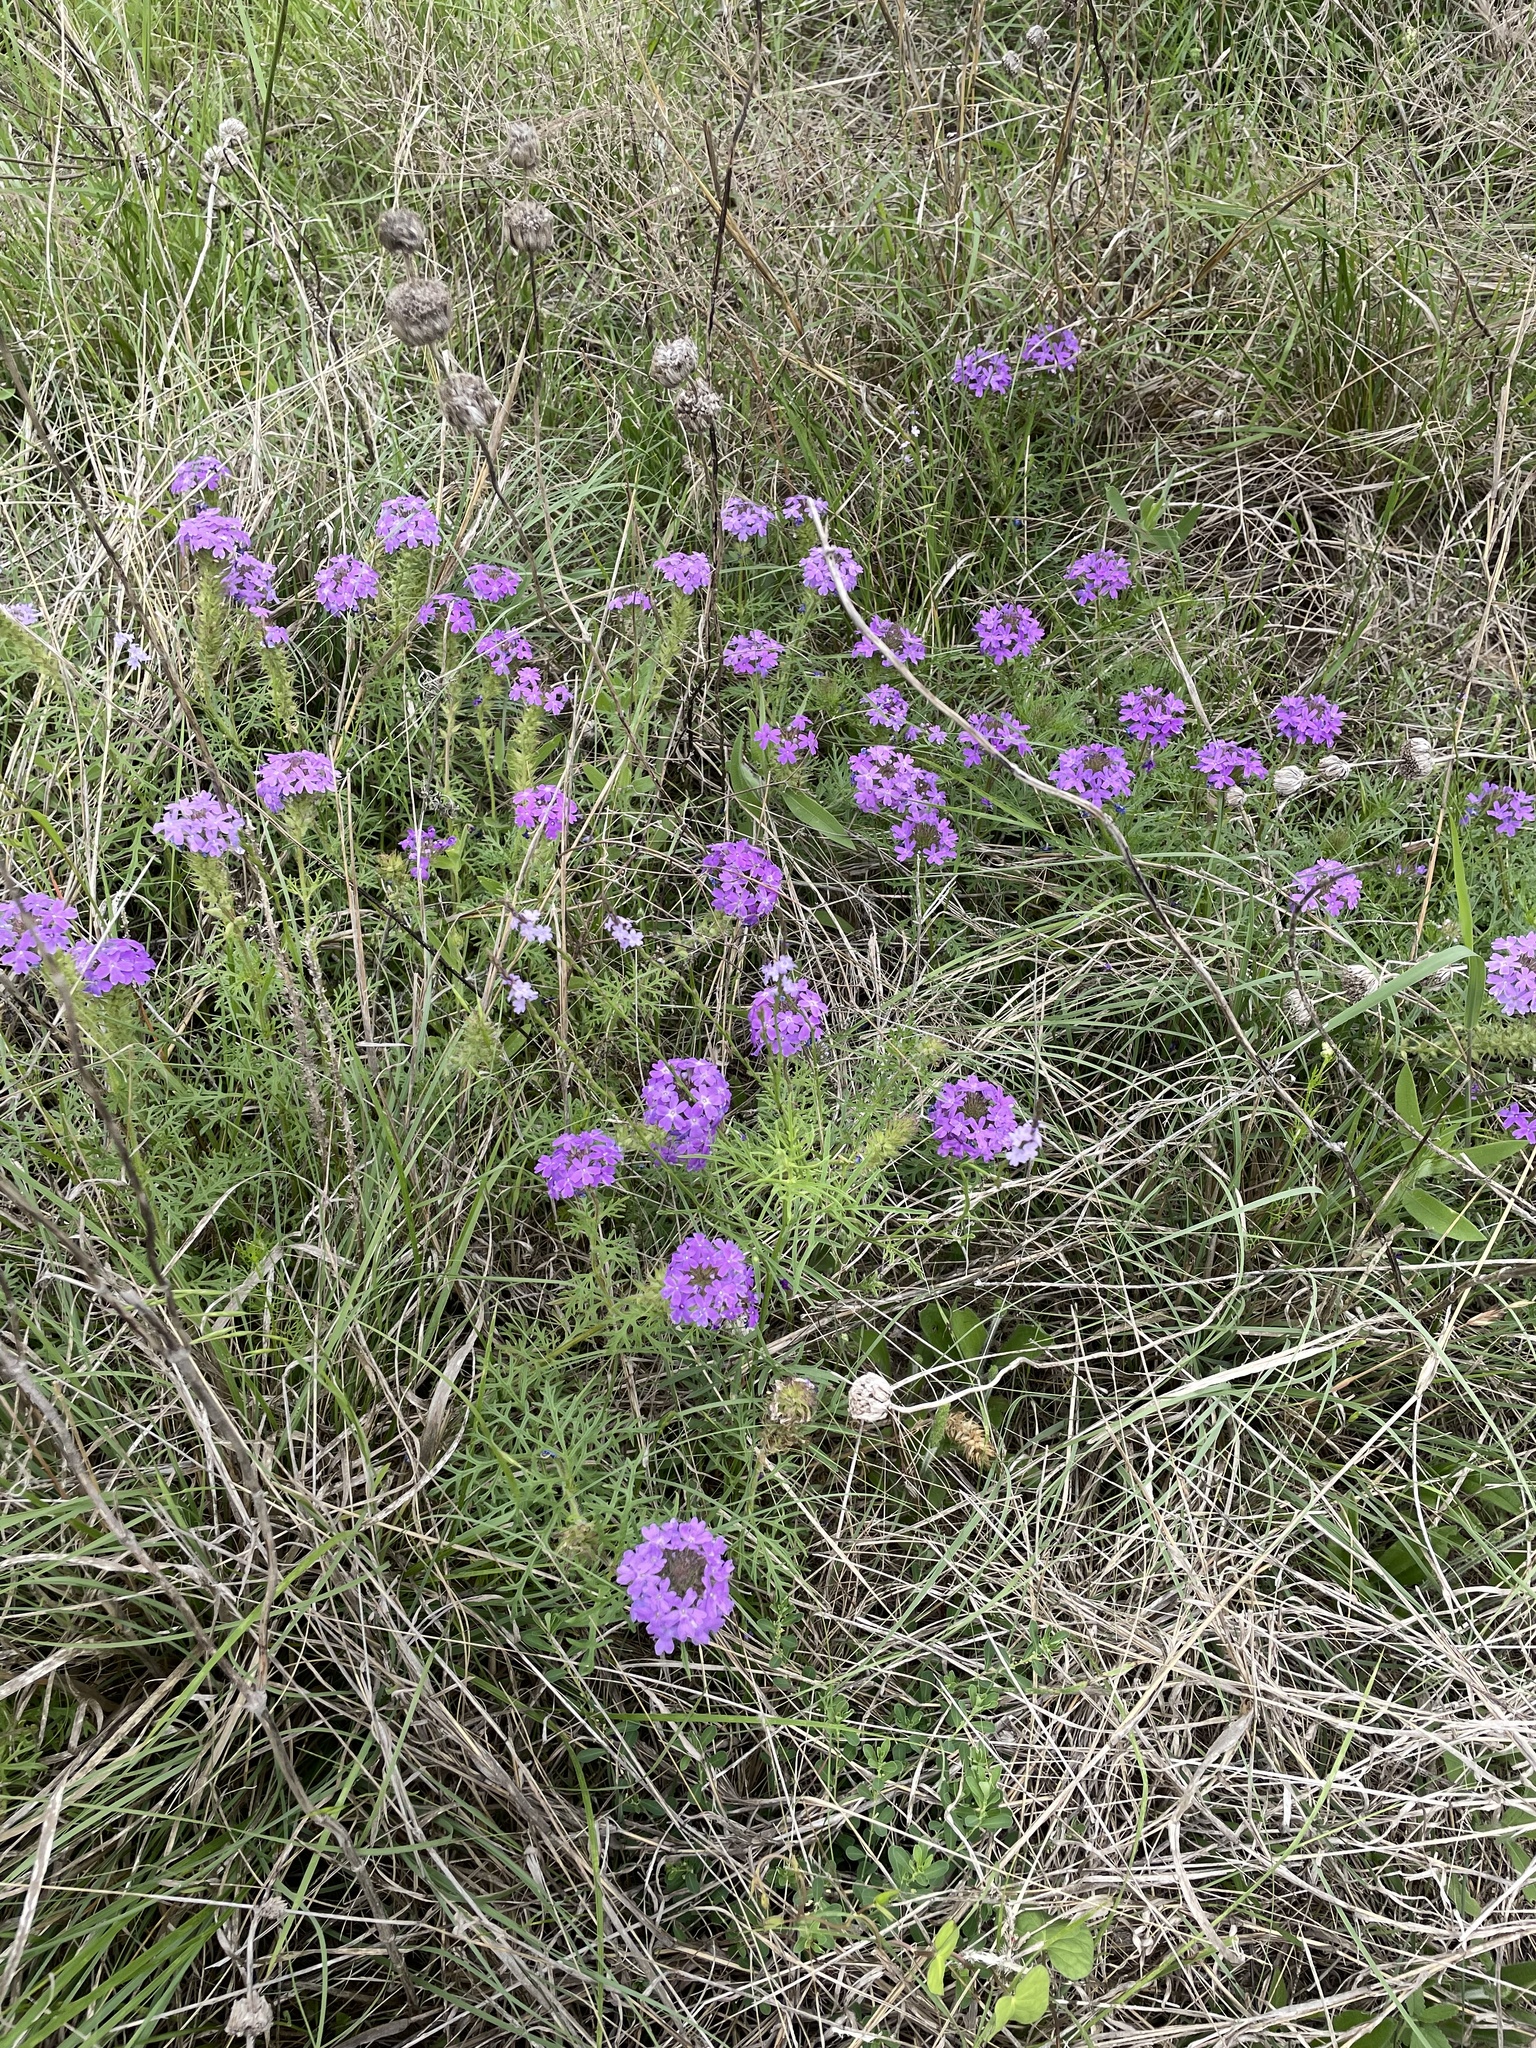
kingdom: Plantae
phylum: Tracheophyta
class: Magnoliopsida
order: Lamiales
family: Verbenaceae
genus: Verbena
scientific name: Verbena bipinnatifida
